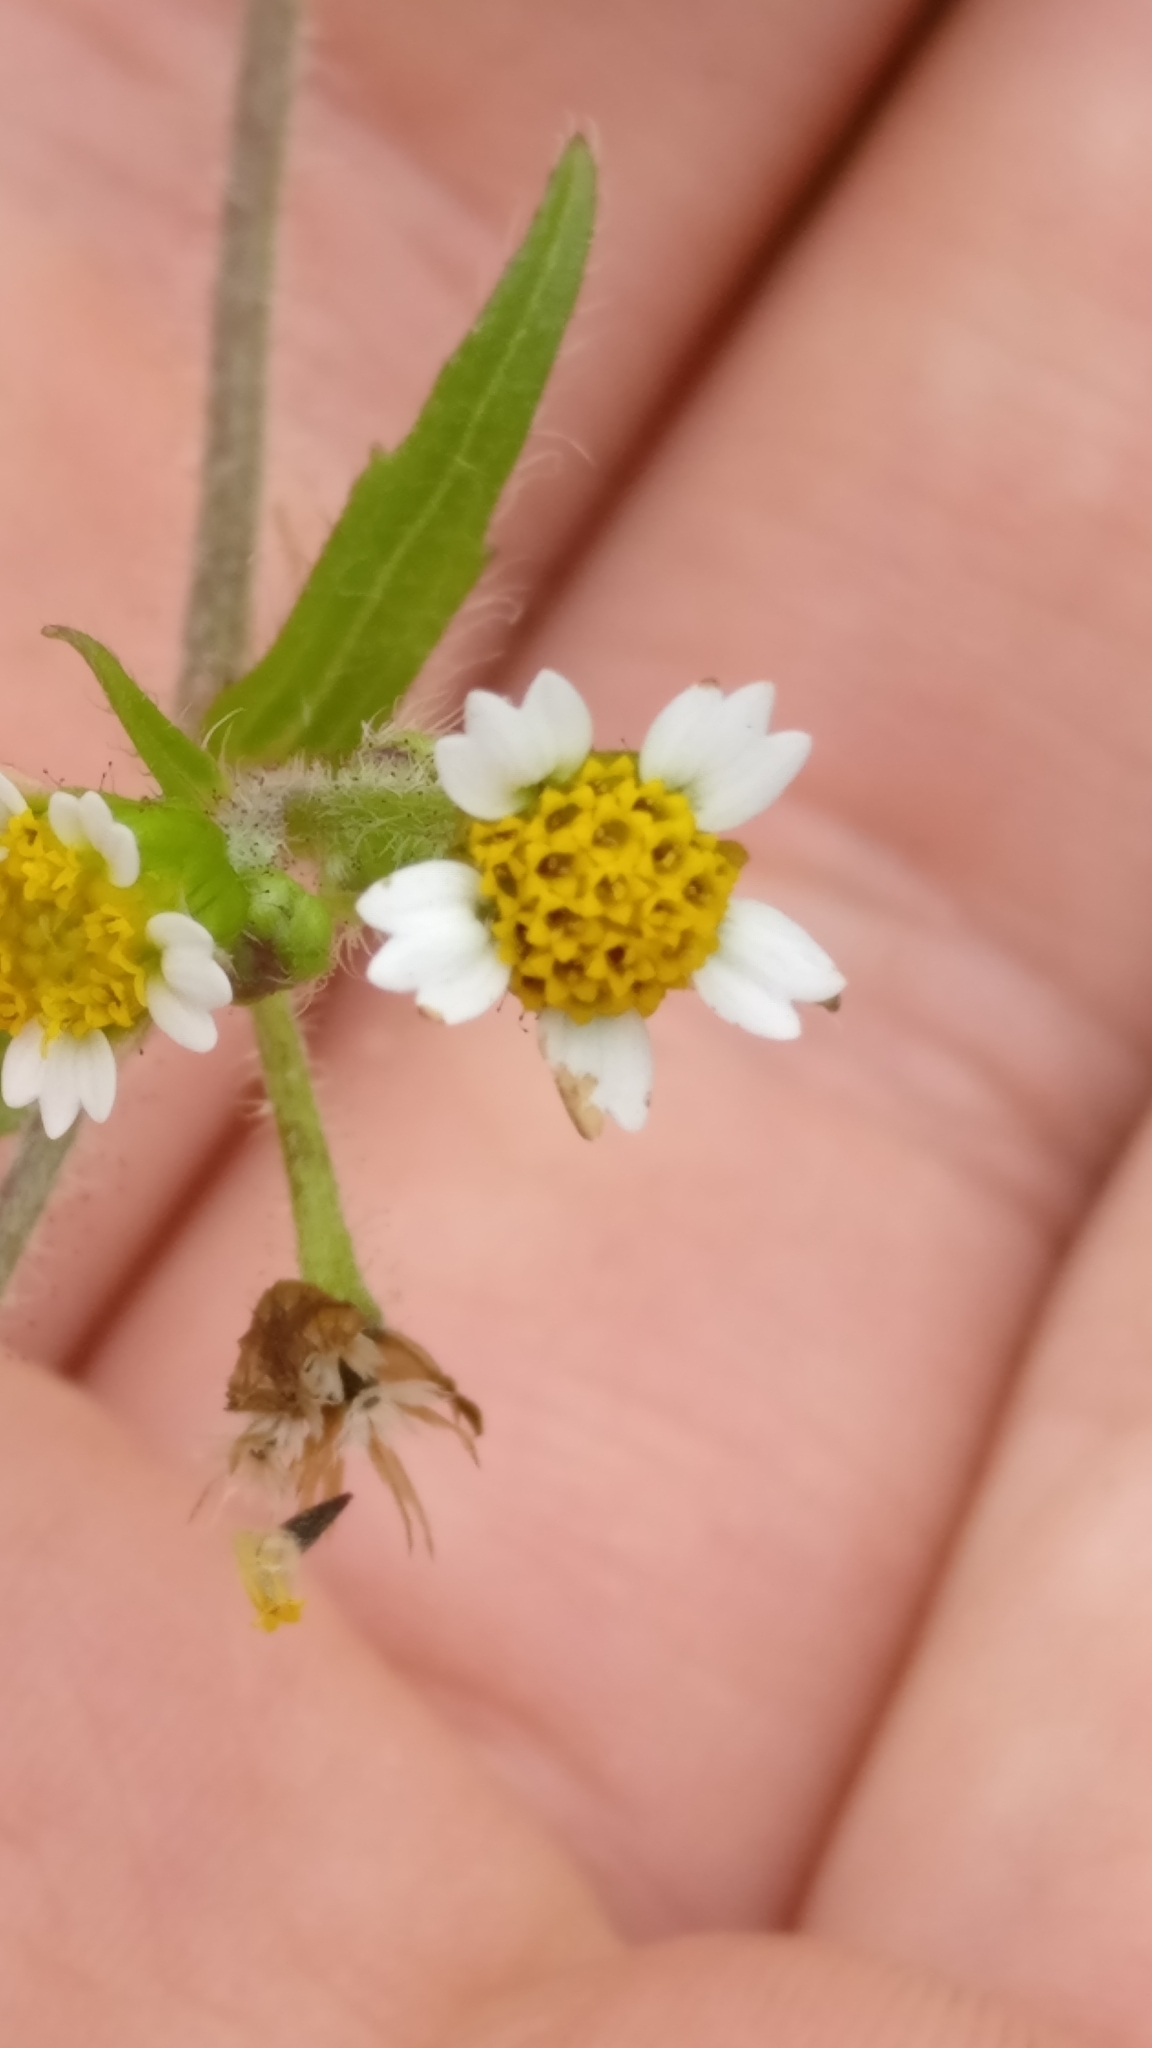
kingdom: Plantae
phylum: Tracheophyta
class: Magnoliopsida
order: Asterales
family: Asteraceae
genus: Galinsoga
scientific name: Galinsoga quadriradiata
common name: Shaggy soldier
